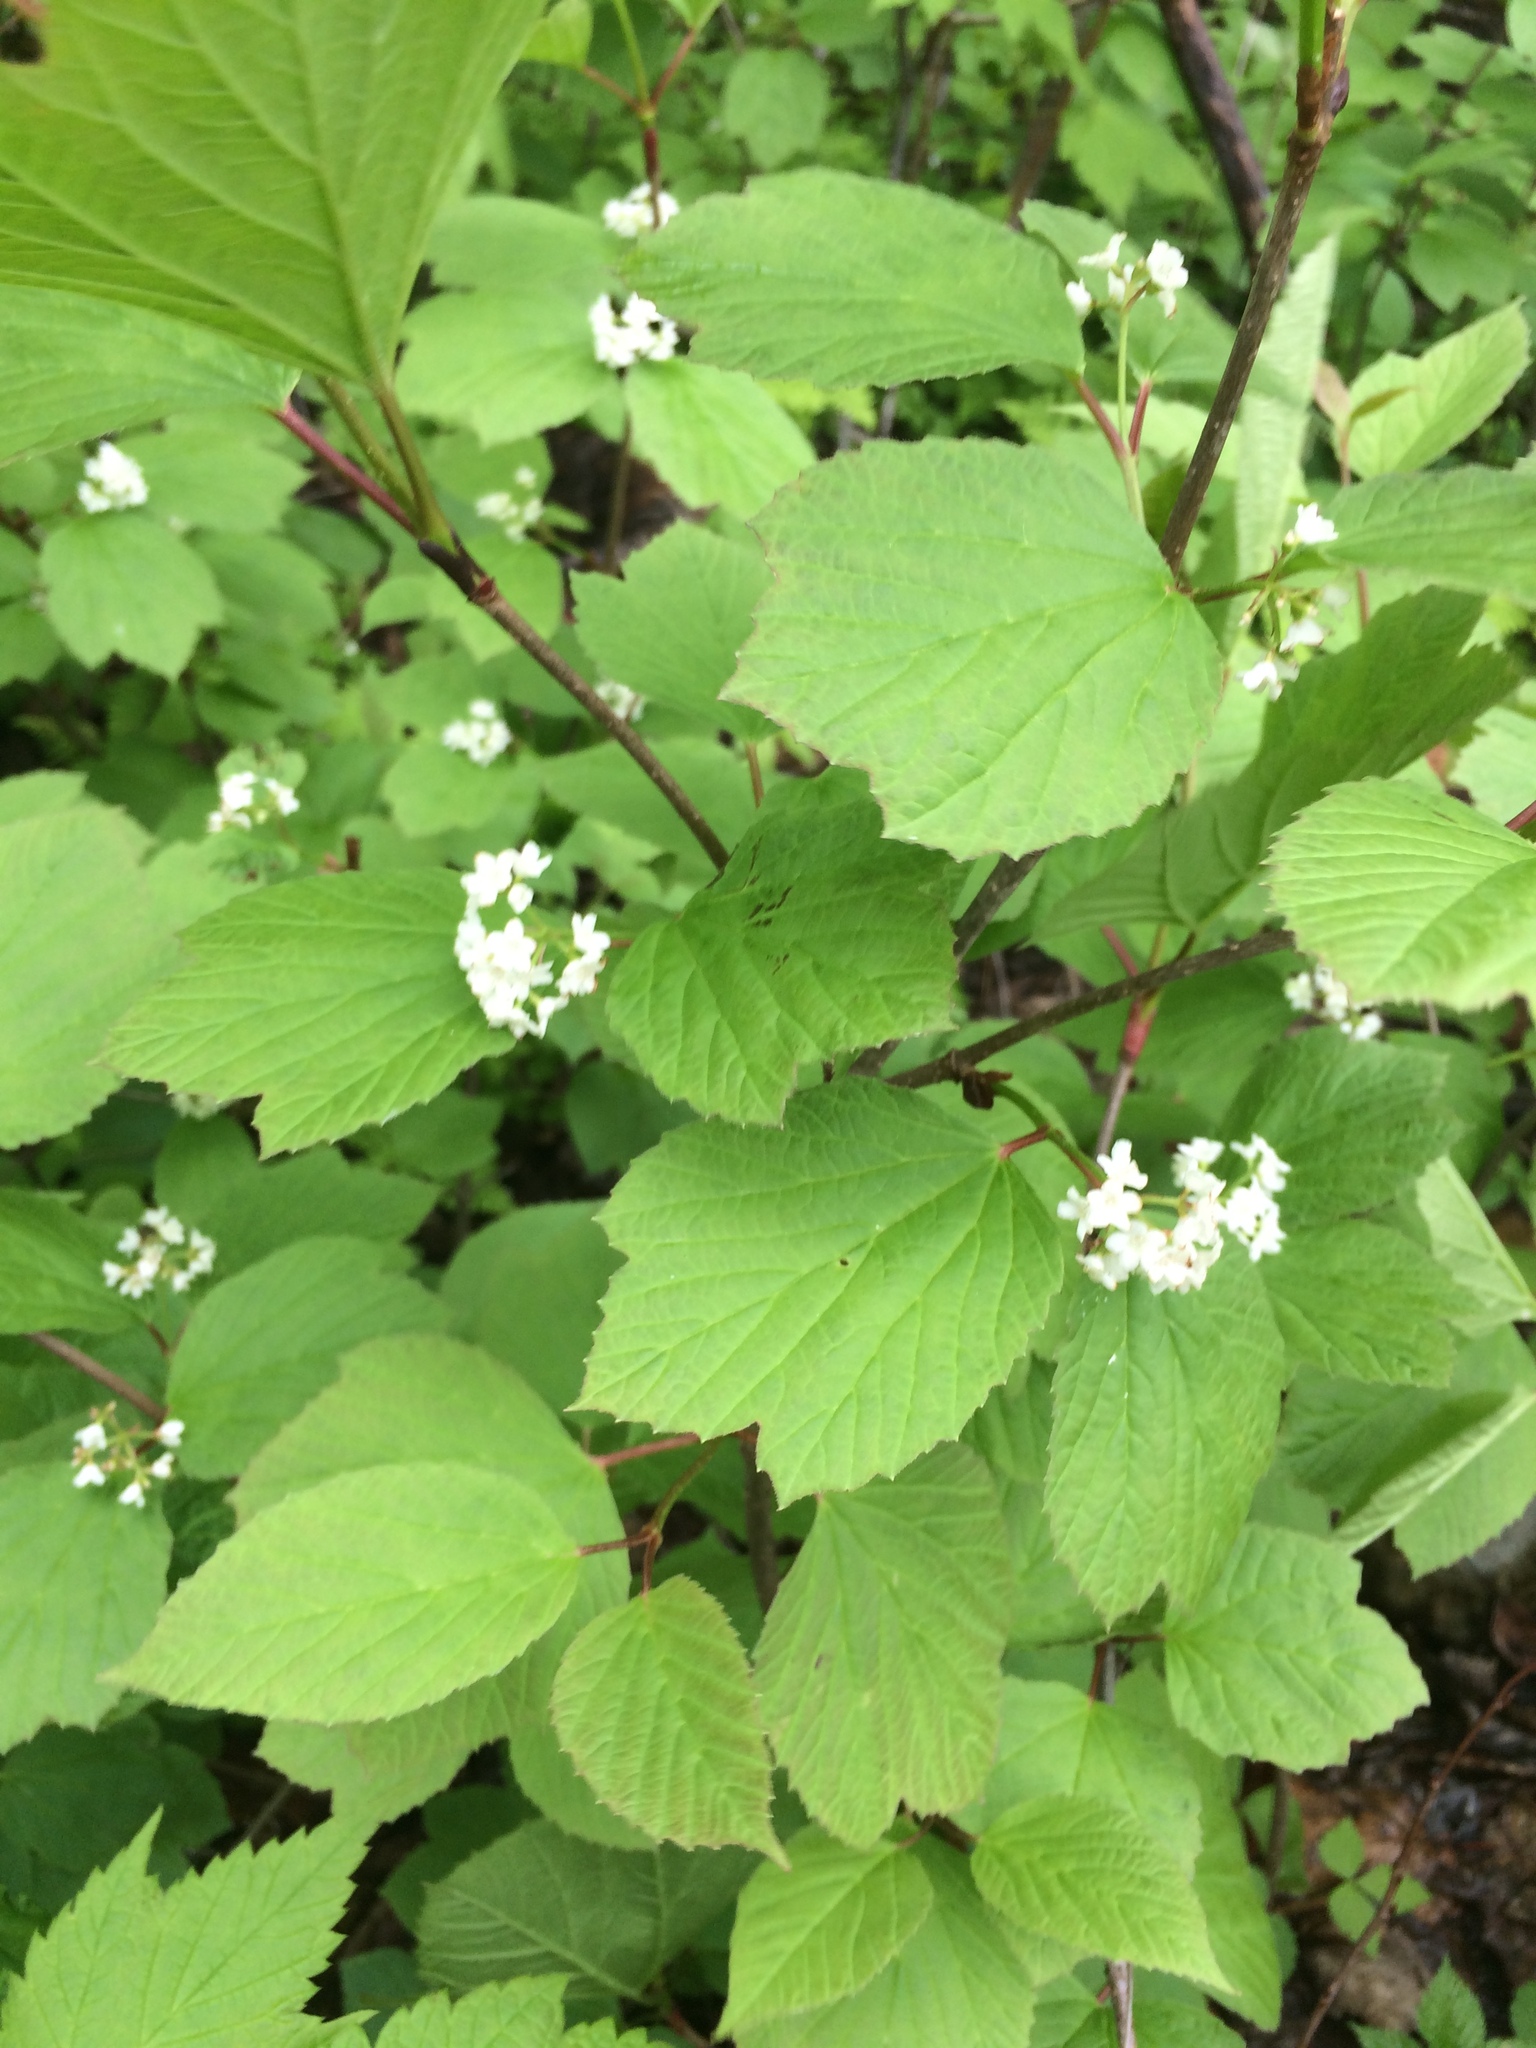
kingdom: Plantae
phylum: Tracheophyta
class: Magnoliopsida
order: Dipsacales
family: Viburnaceae
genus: Viburnum
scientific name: Viburnum edule
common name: Mooseberry
